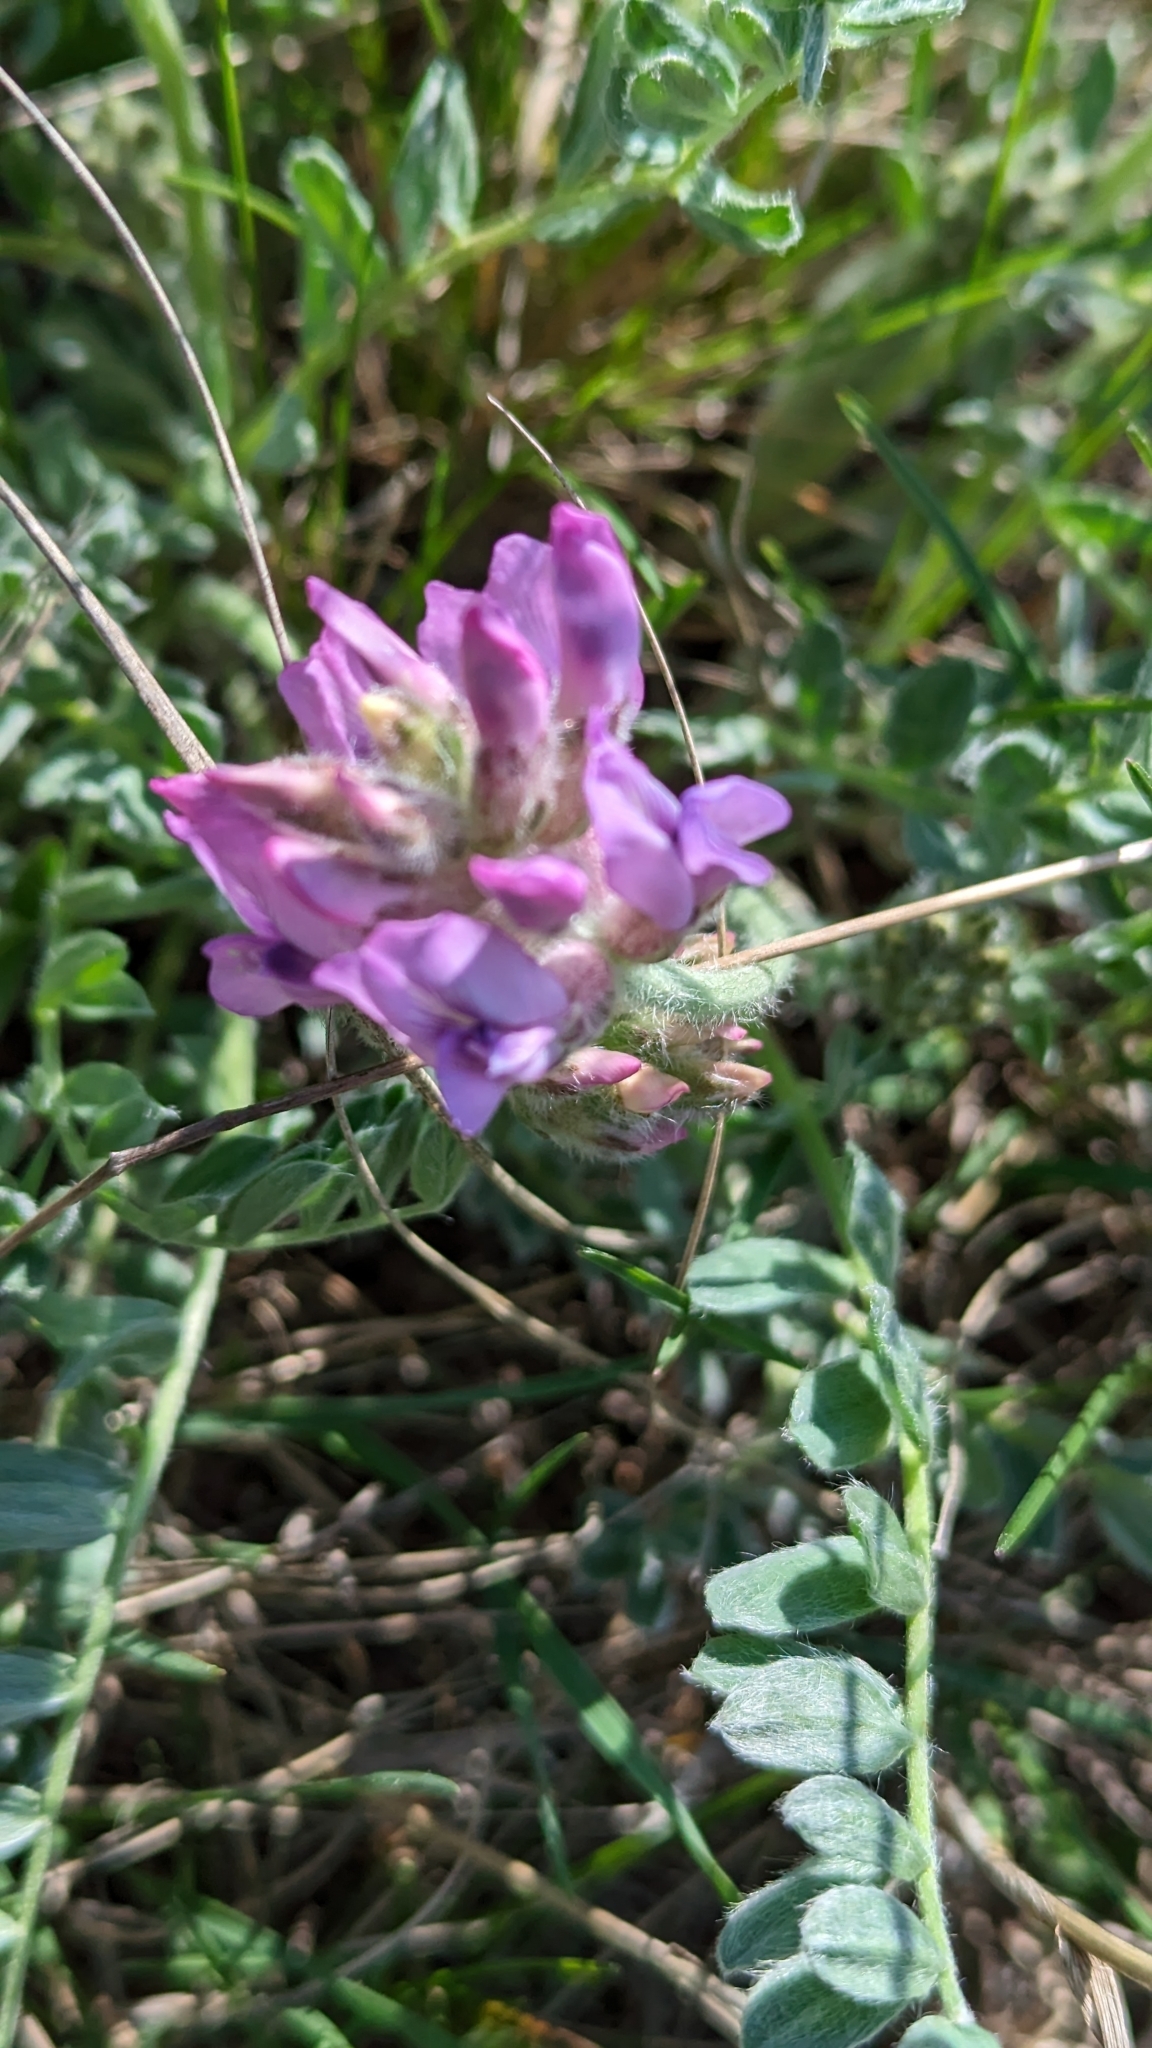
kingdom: Plantae
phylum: Tracheophyta
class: Magnoliopsida
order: Fabales
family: Fabaceae
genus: Oxytropis
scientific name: Oxytropis lambertii
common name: Purple locoweed
